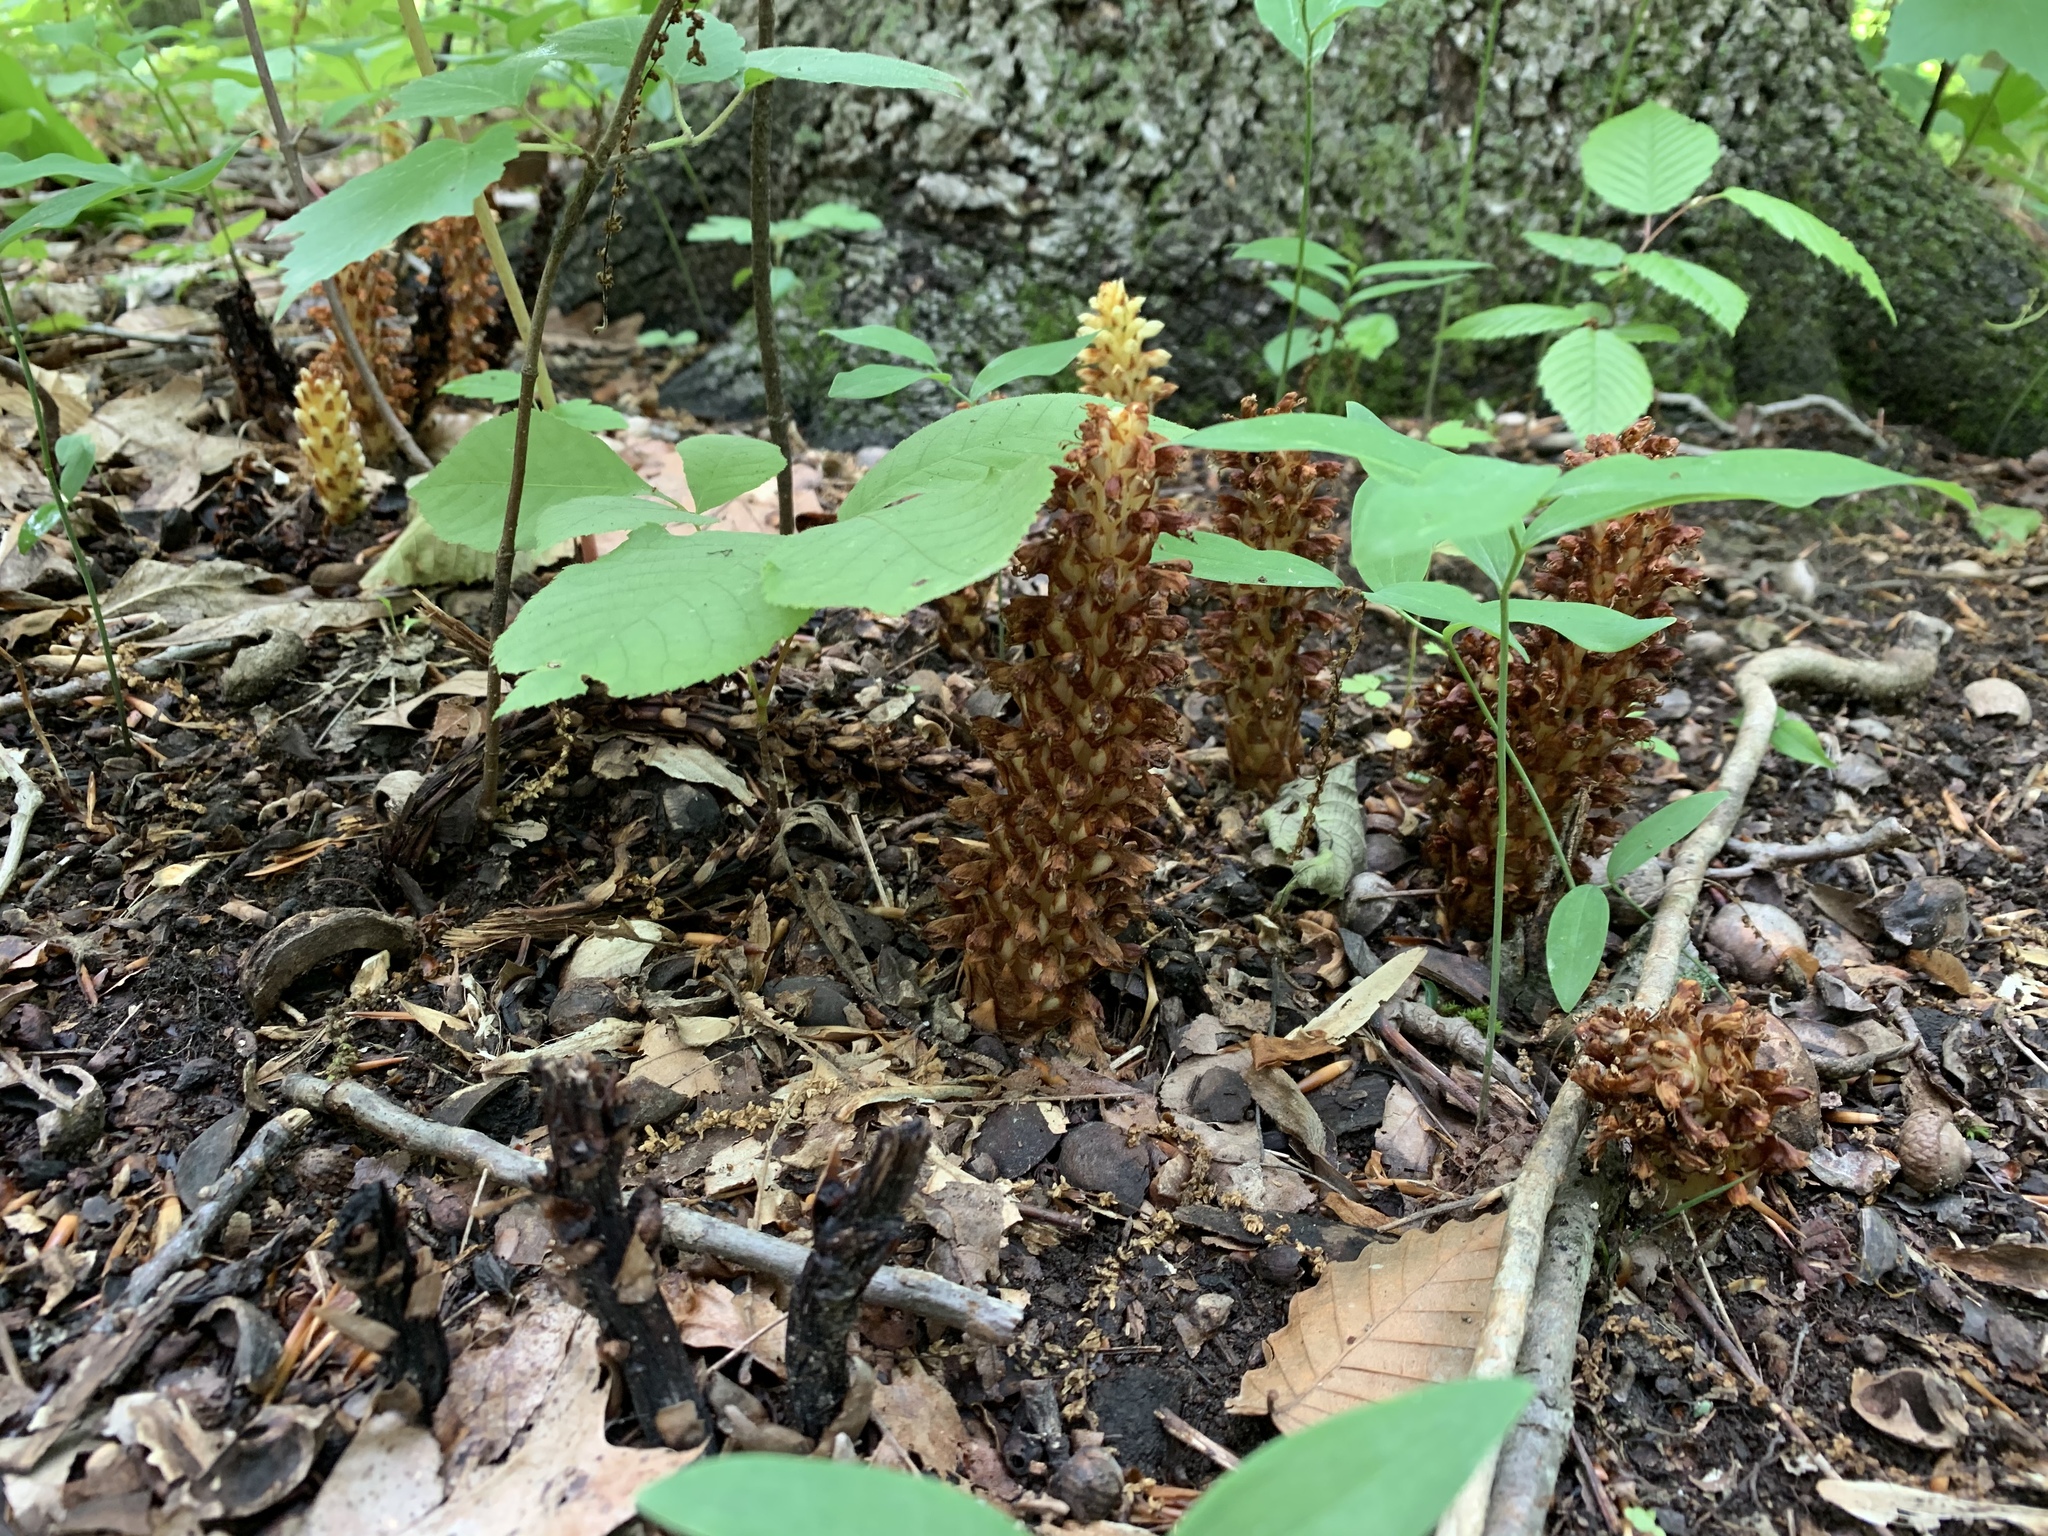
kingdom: Plantae
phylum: Tracheophyta
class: Magnoliopsida
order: Lamiales
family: Orobanchaceae
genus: Conopholis
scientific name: Conopholis americana
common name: American cancer-root
